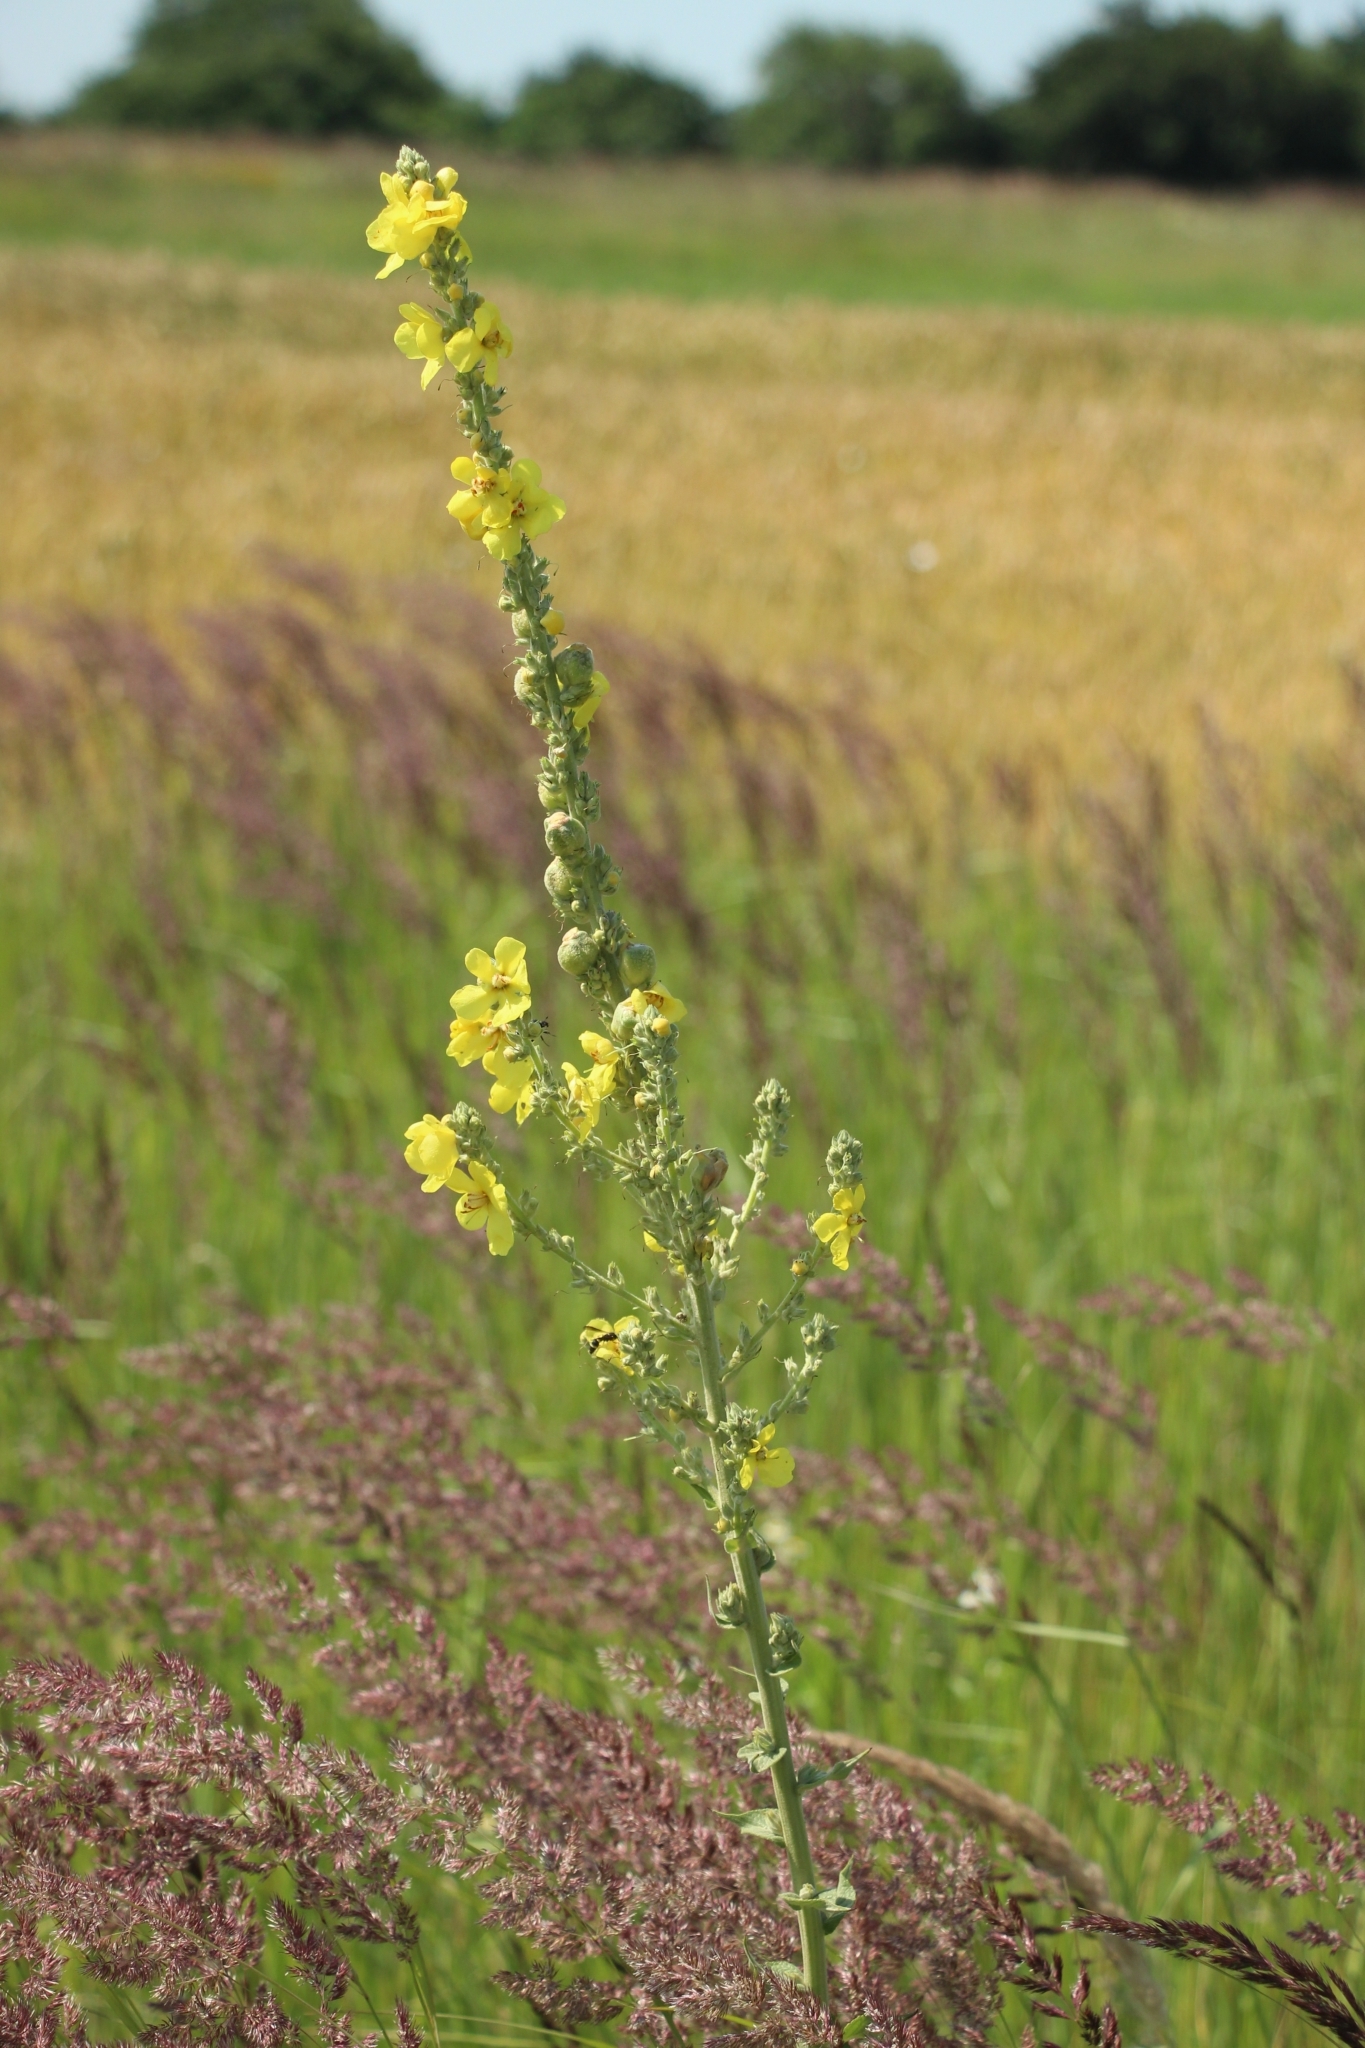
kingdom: Plantae
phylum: Tracheophyta
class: Magnoliopsida
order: Lamiales
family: Scrophulariaceae
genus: Verbascum
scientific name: Verbascum denudatum
